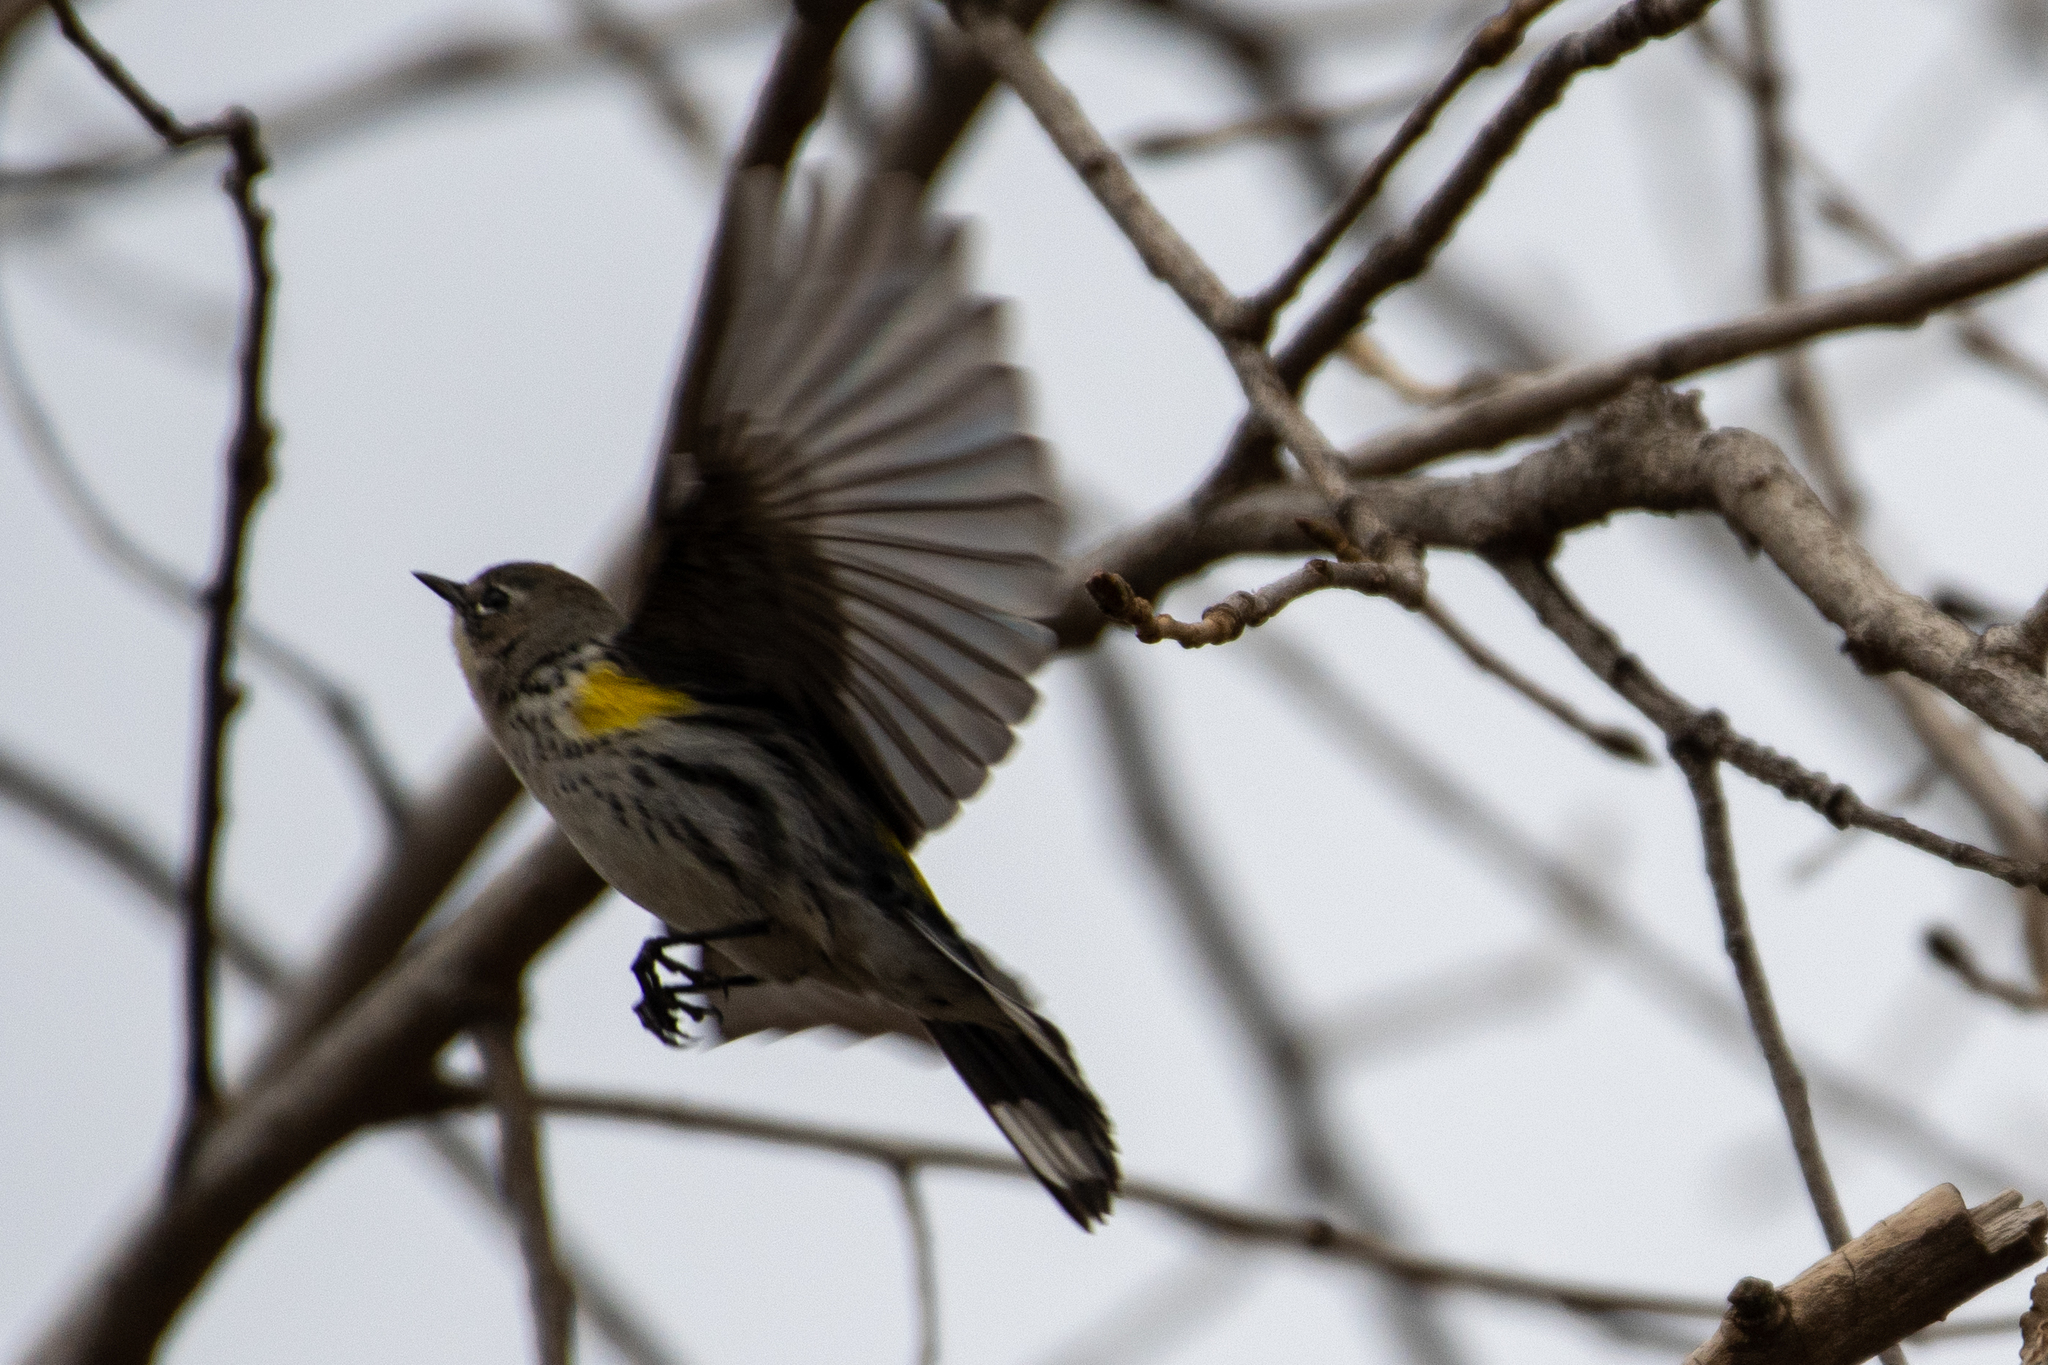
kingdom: Animalia
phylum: Chordata
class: Aves
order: Passeriformes
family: Parulidae
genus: Setophaga
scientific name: Setophaga coronata
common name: Myrtle warbler
